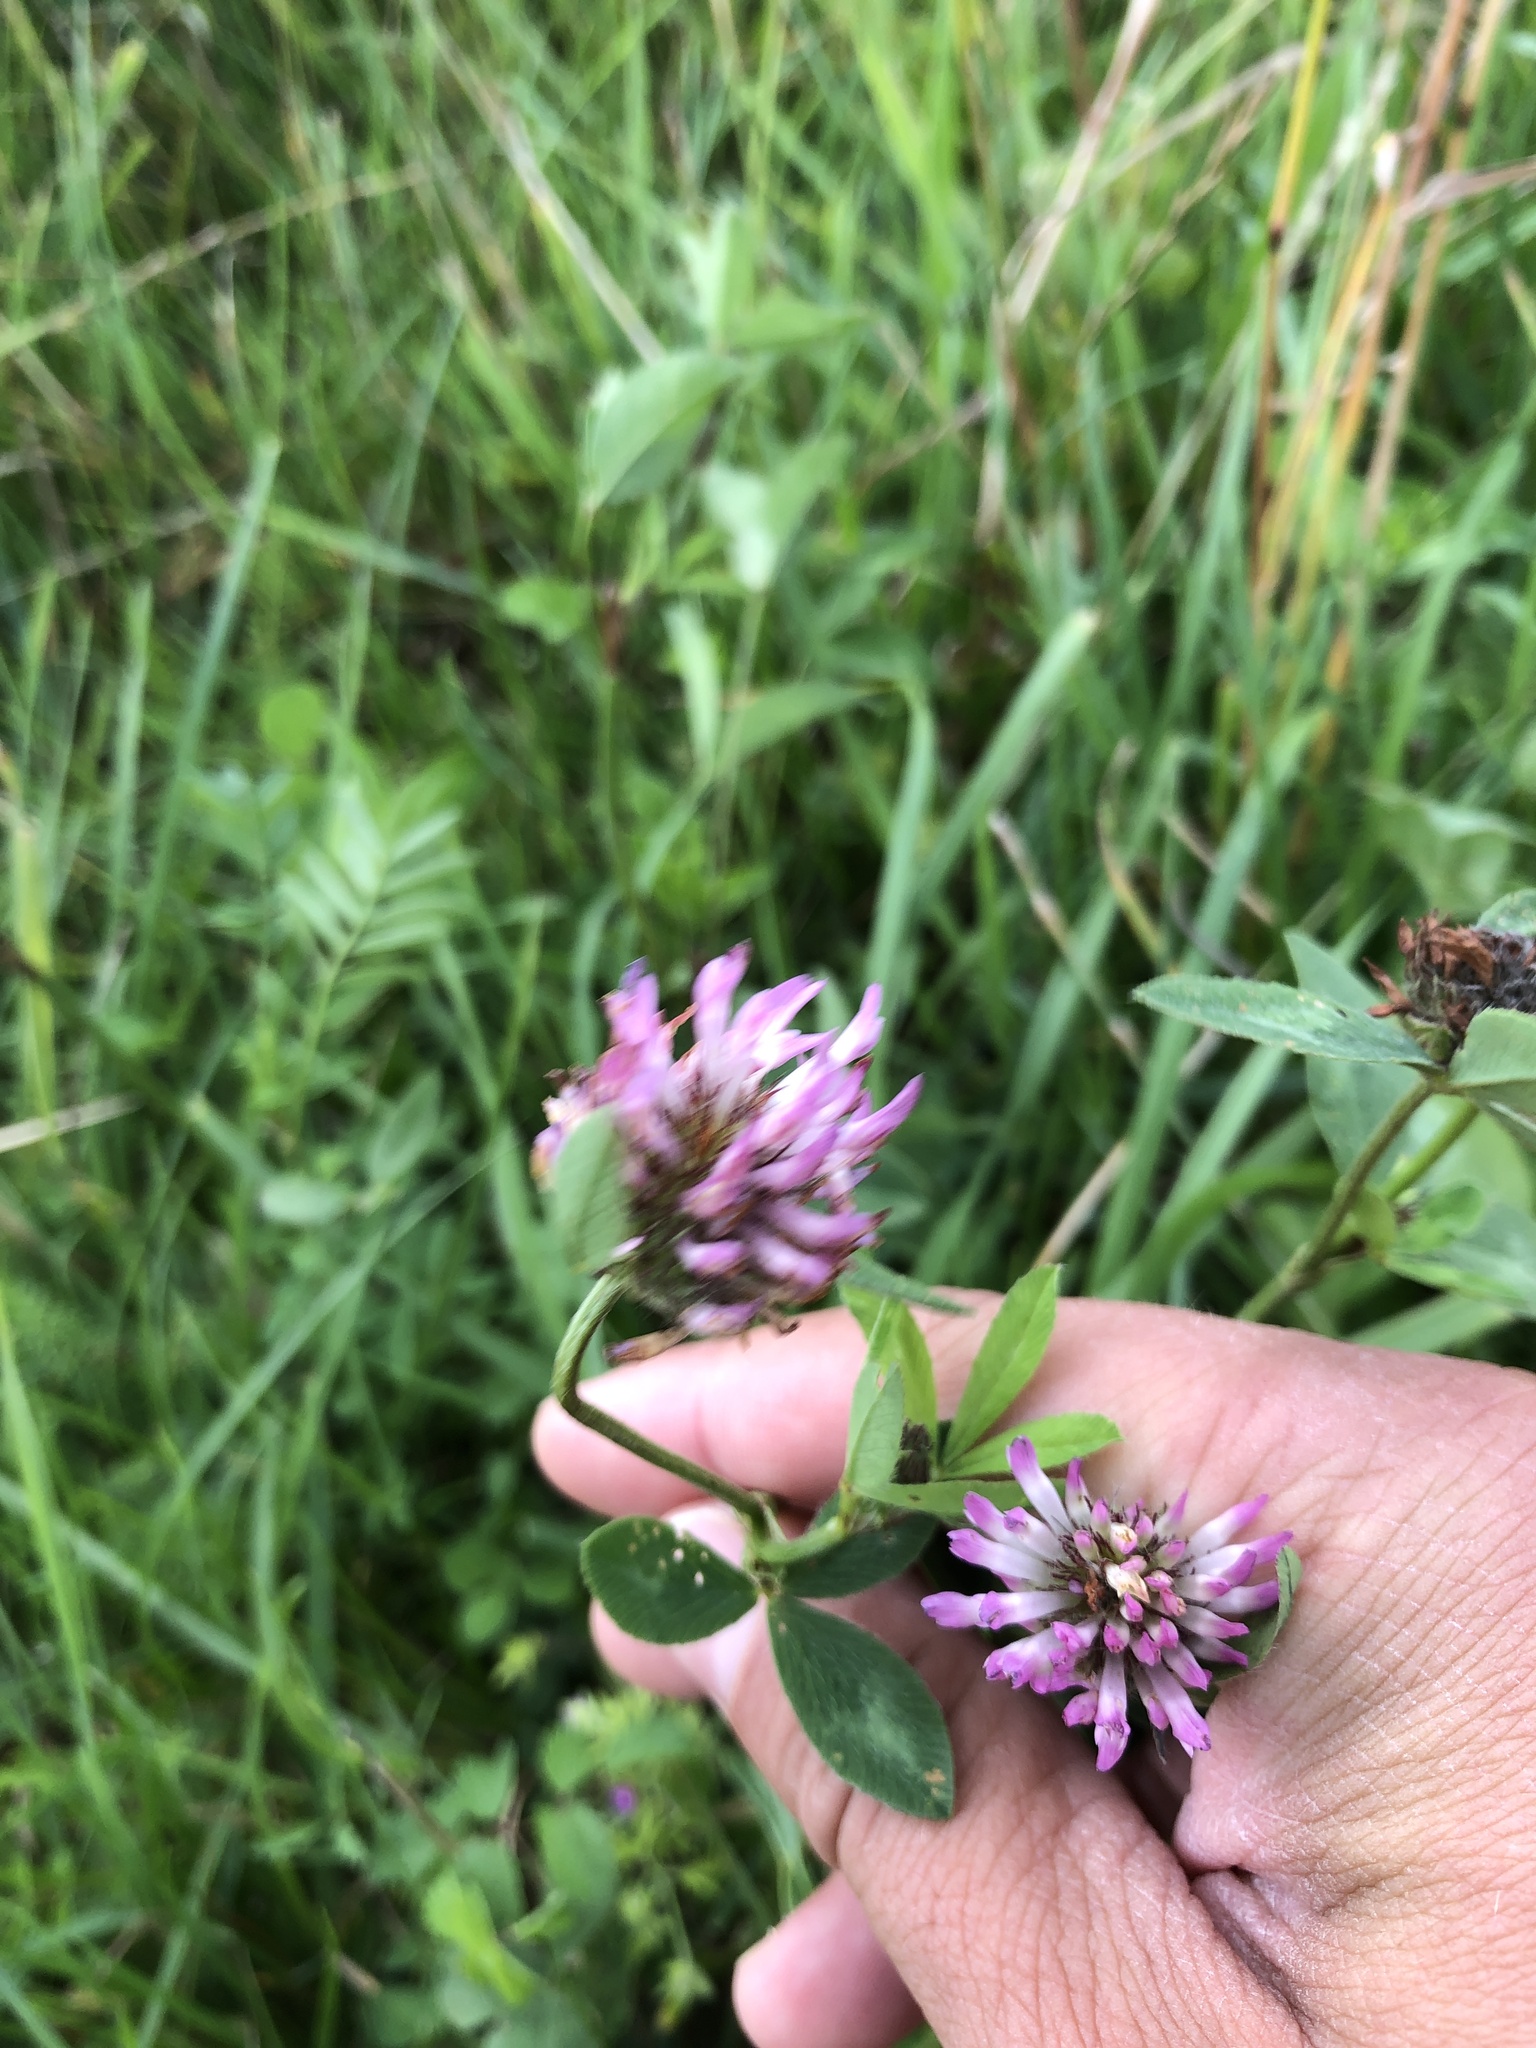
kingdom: Plantae
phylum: Tracheophyta
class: Magnoliopsida
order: Fabales
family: Fabaceae
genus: Trifolium
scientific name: Trifolium pratense
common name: Red clover
